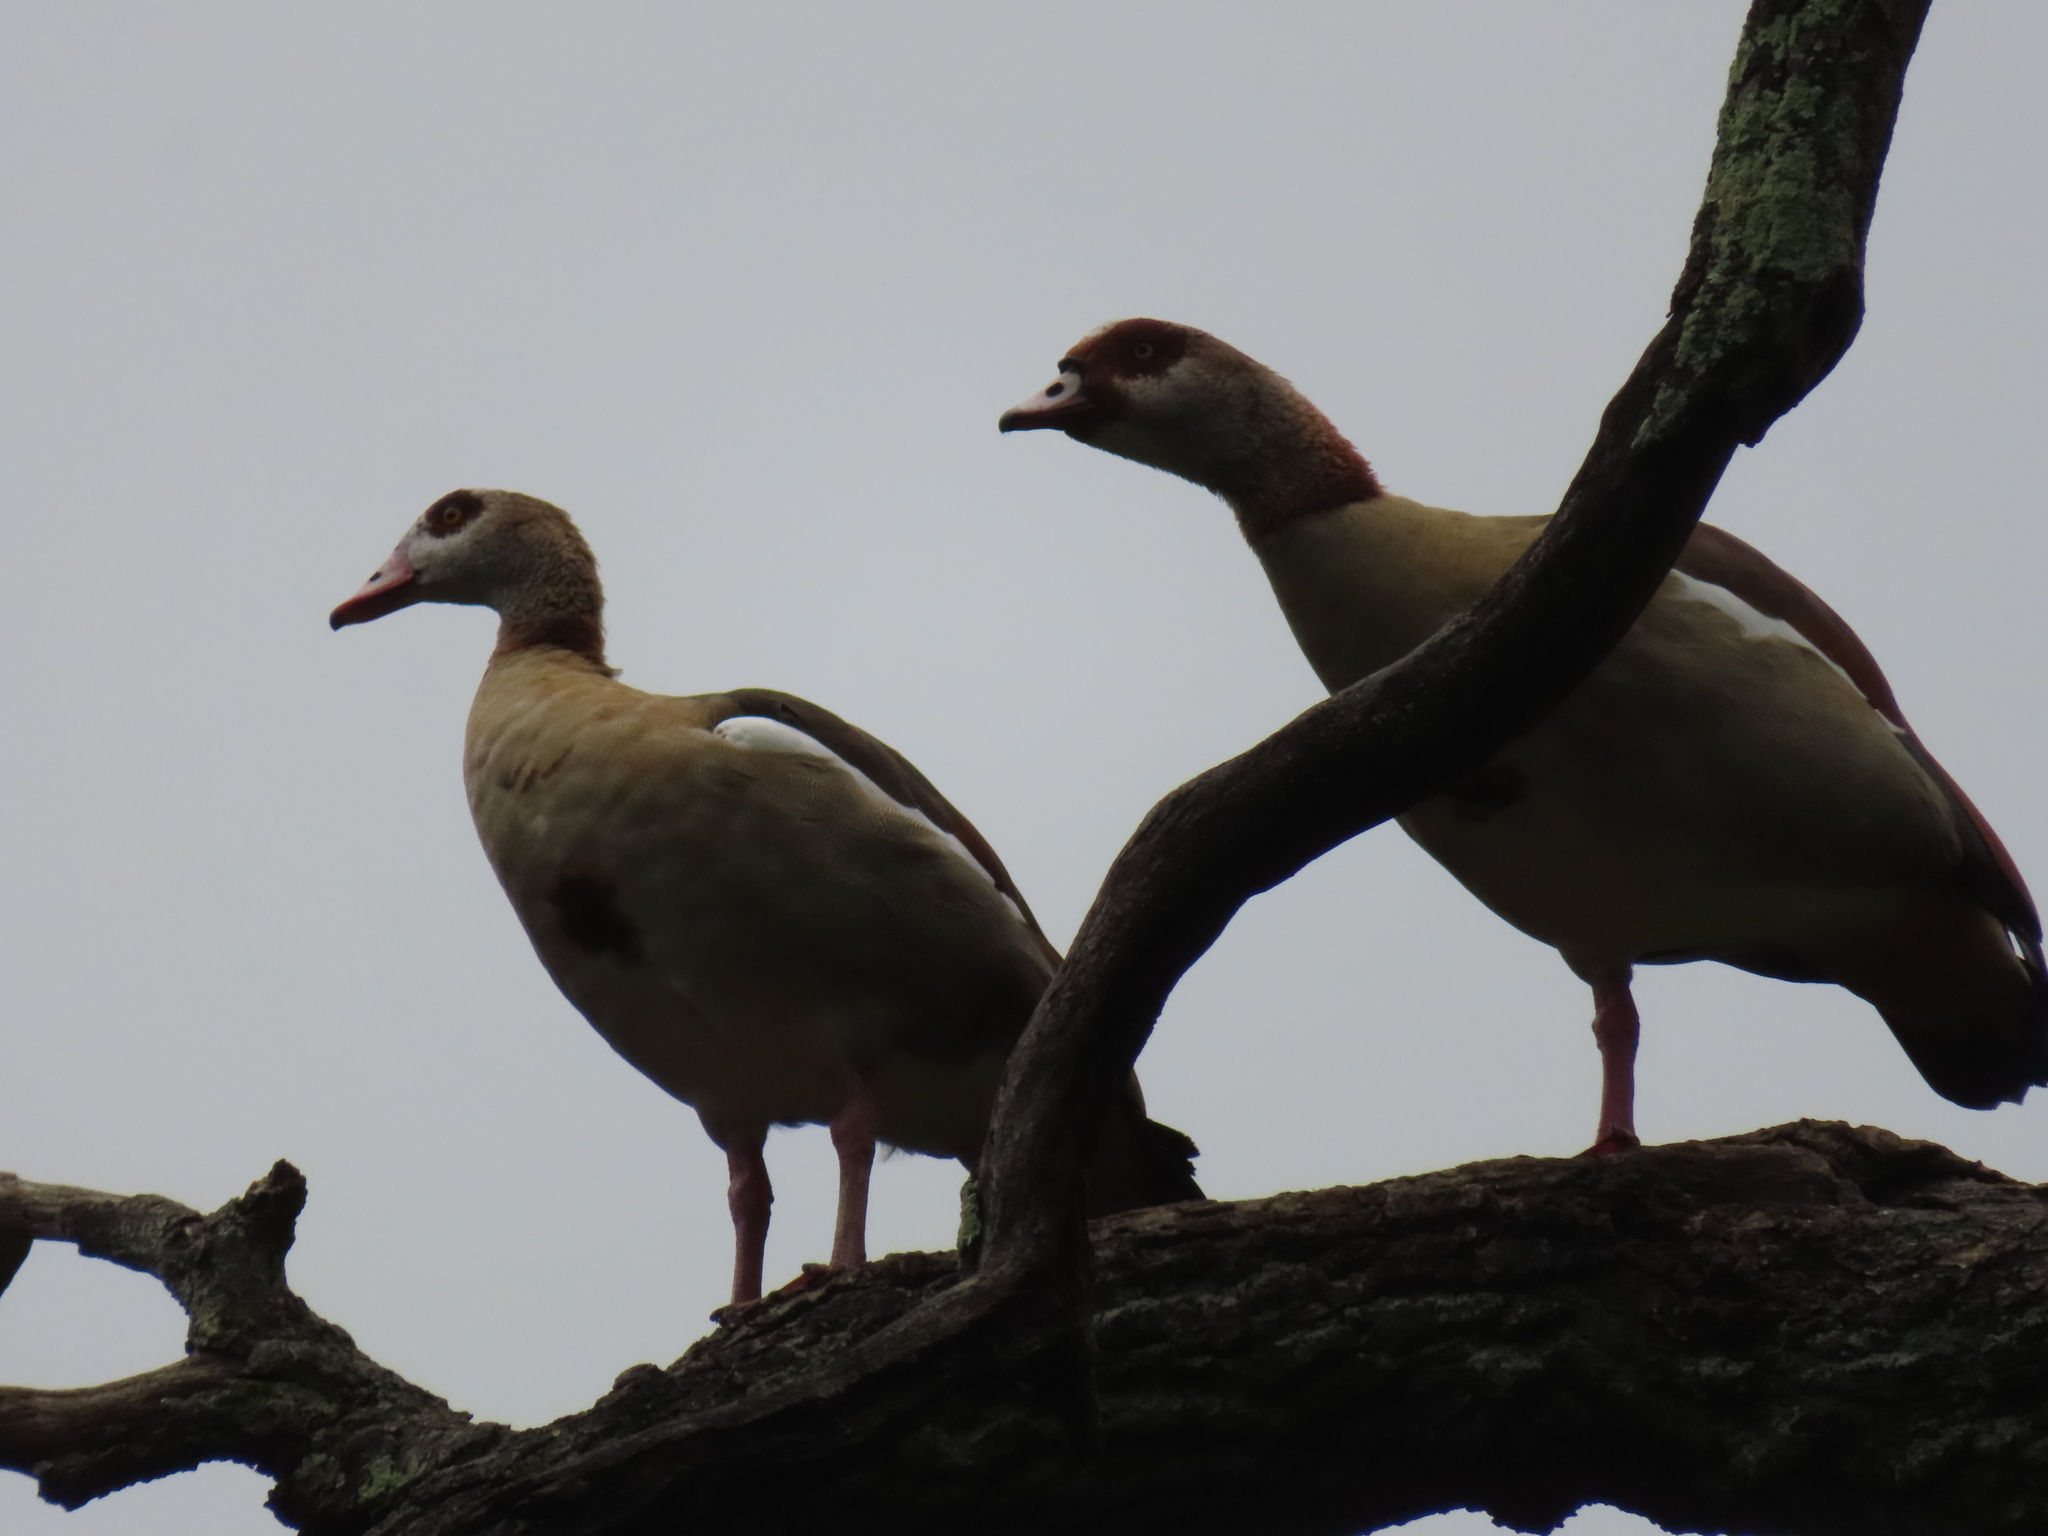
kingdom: Animalia
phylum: Chordata
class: Aves
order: Anseriformes
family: Anatidae
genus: Alopochen
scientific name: Alopochen aegyptiaca
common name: Egyptian goose
